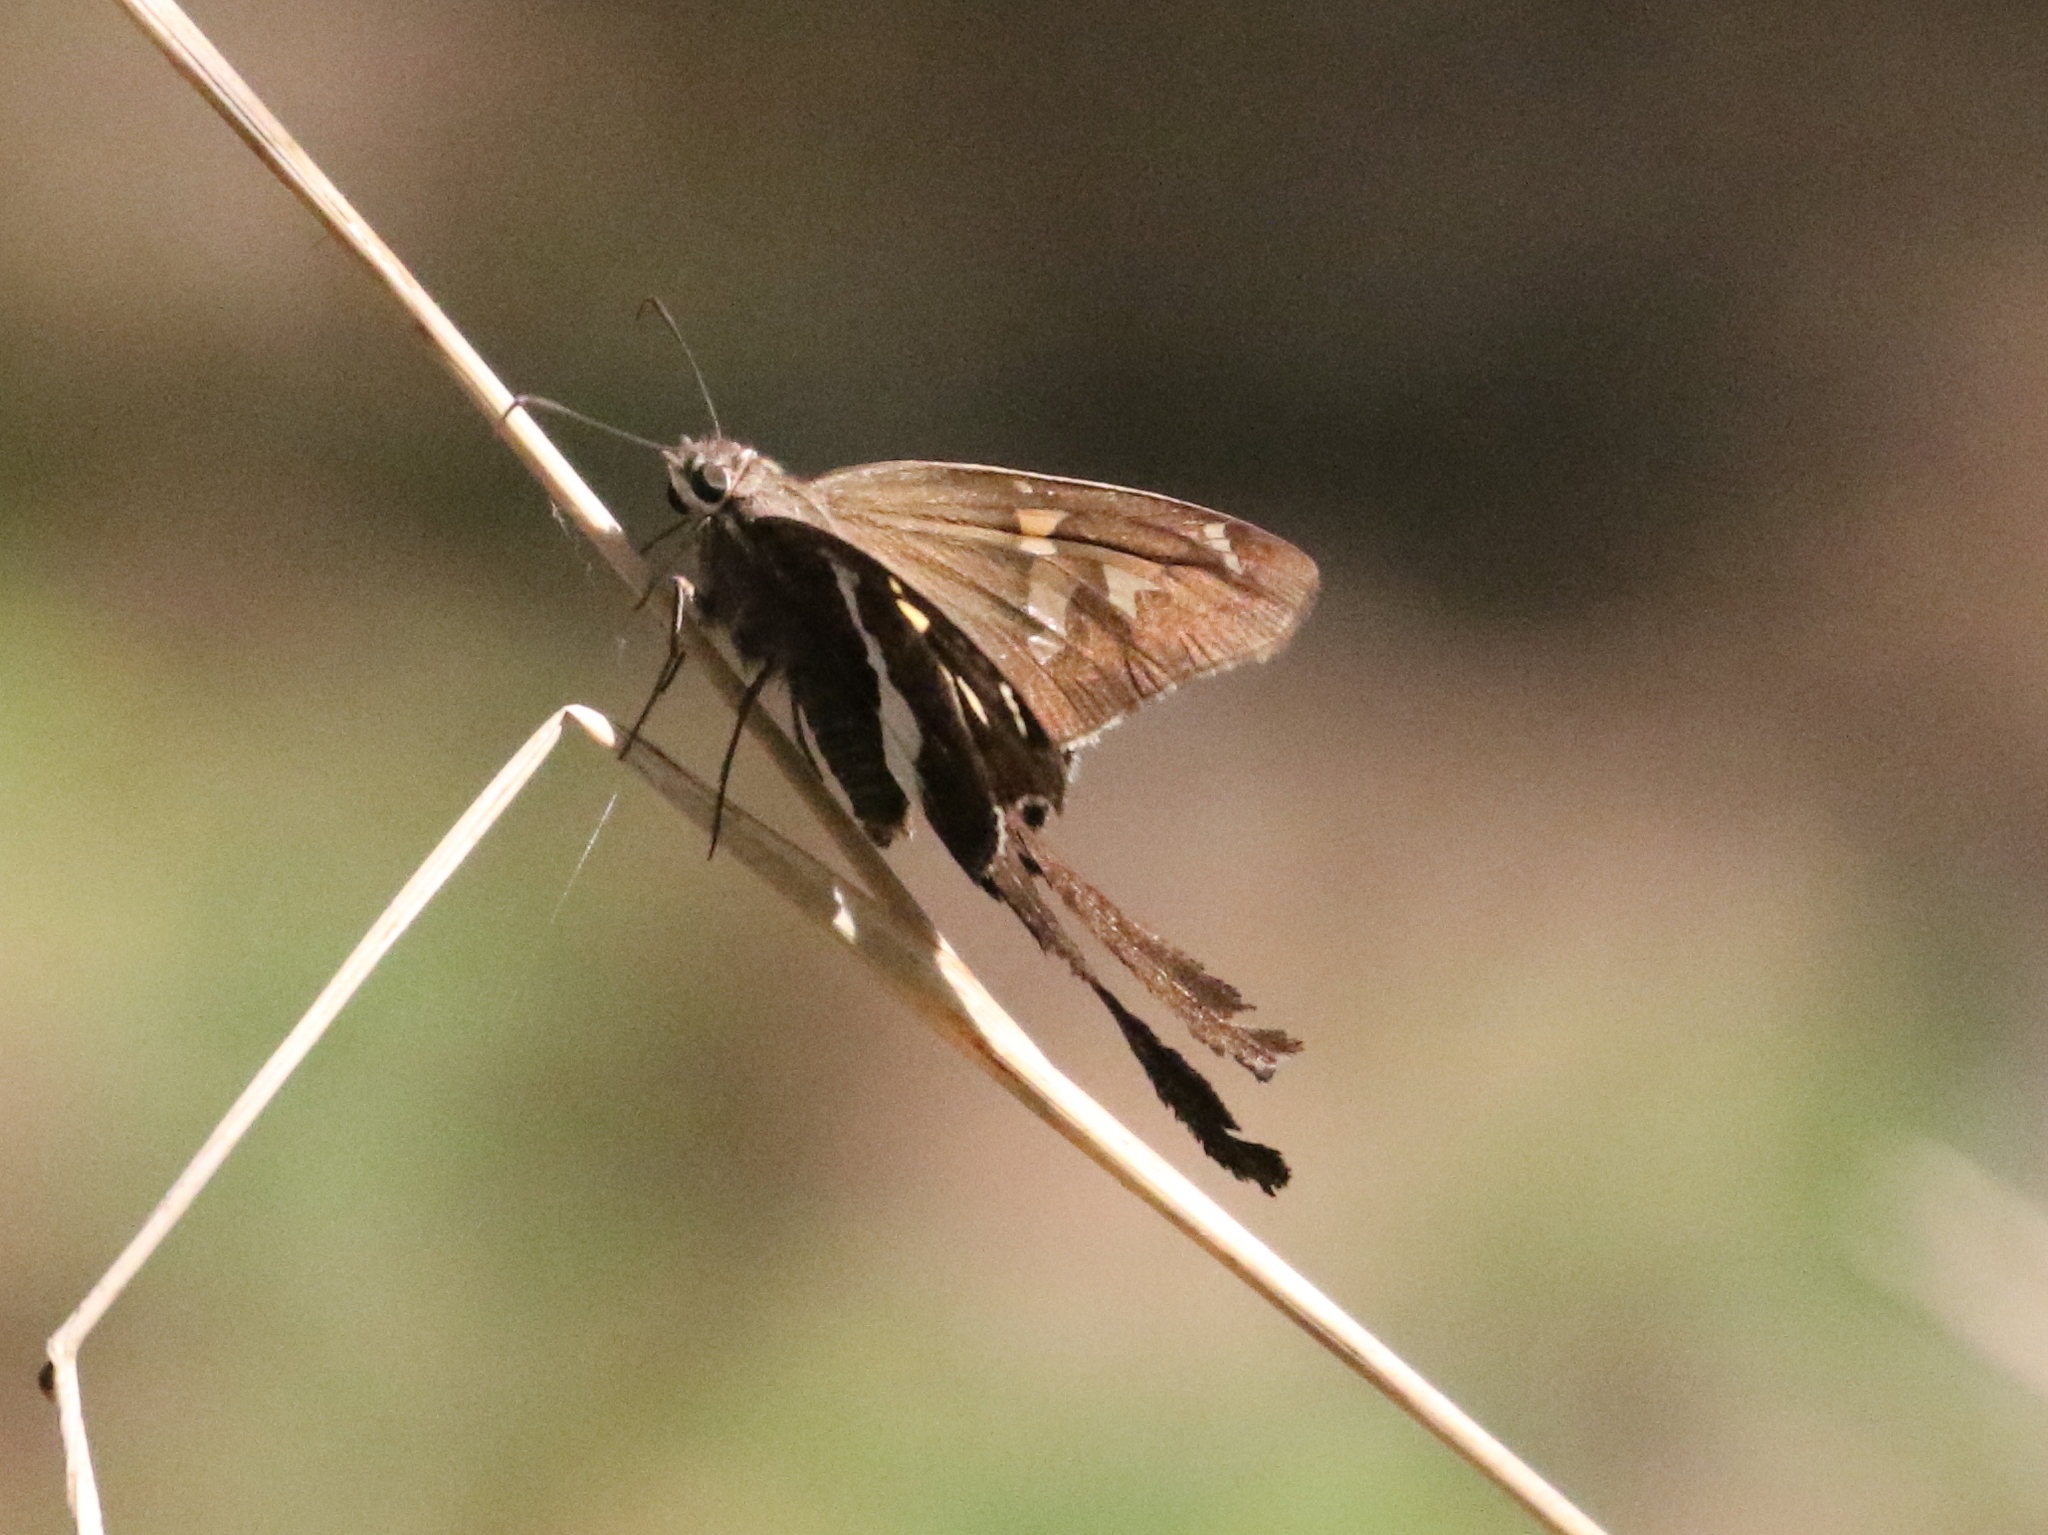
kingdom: Animalia
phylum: Arthropoda
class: Insecta
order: Lepidoptera
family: Hesperiidae
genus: Chioides
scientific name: Chioides catillus
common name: Silverbanded skipper
